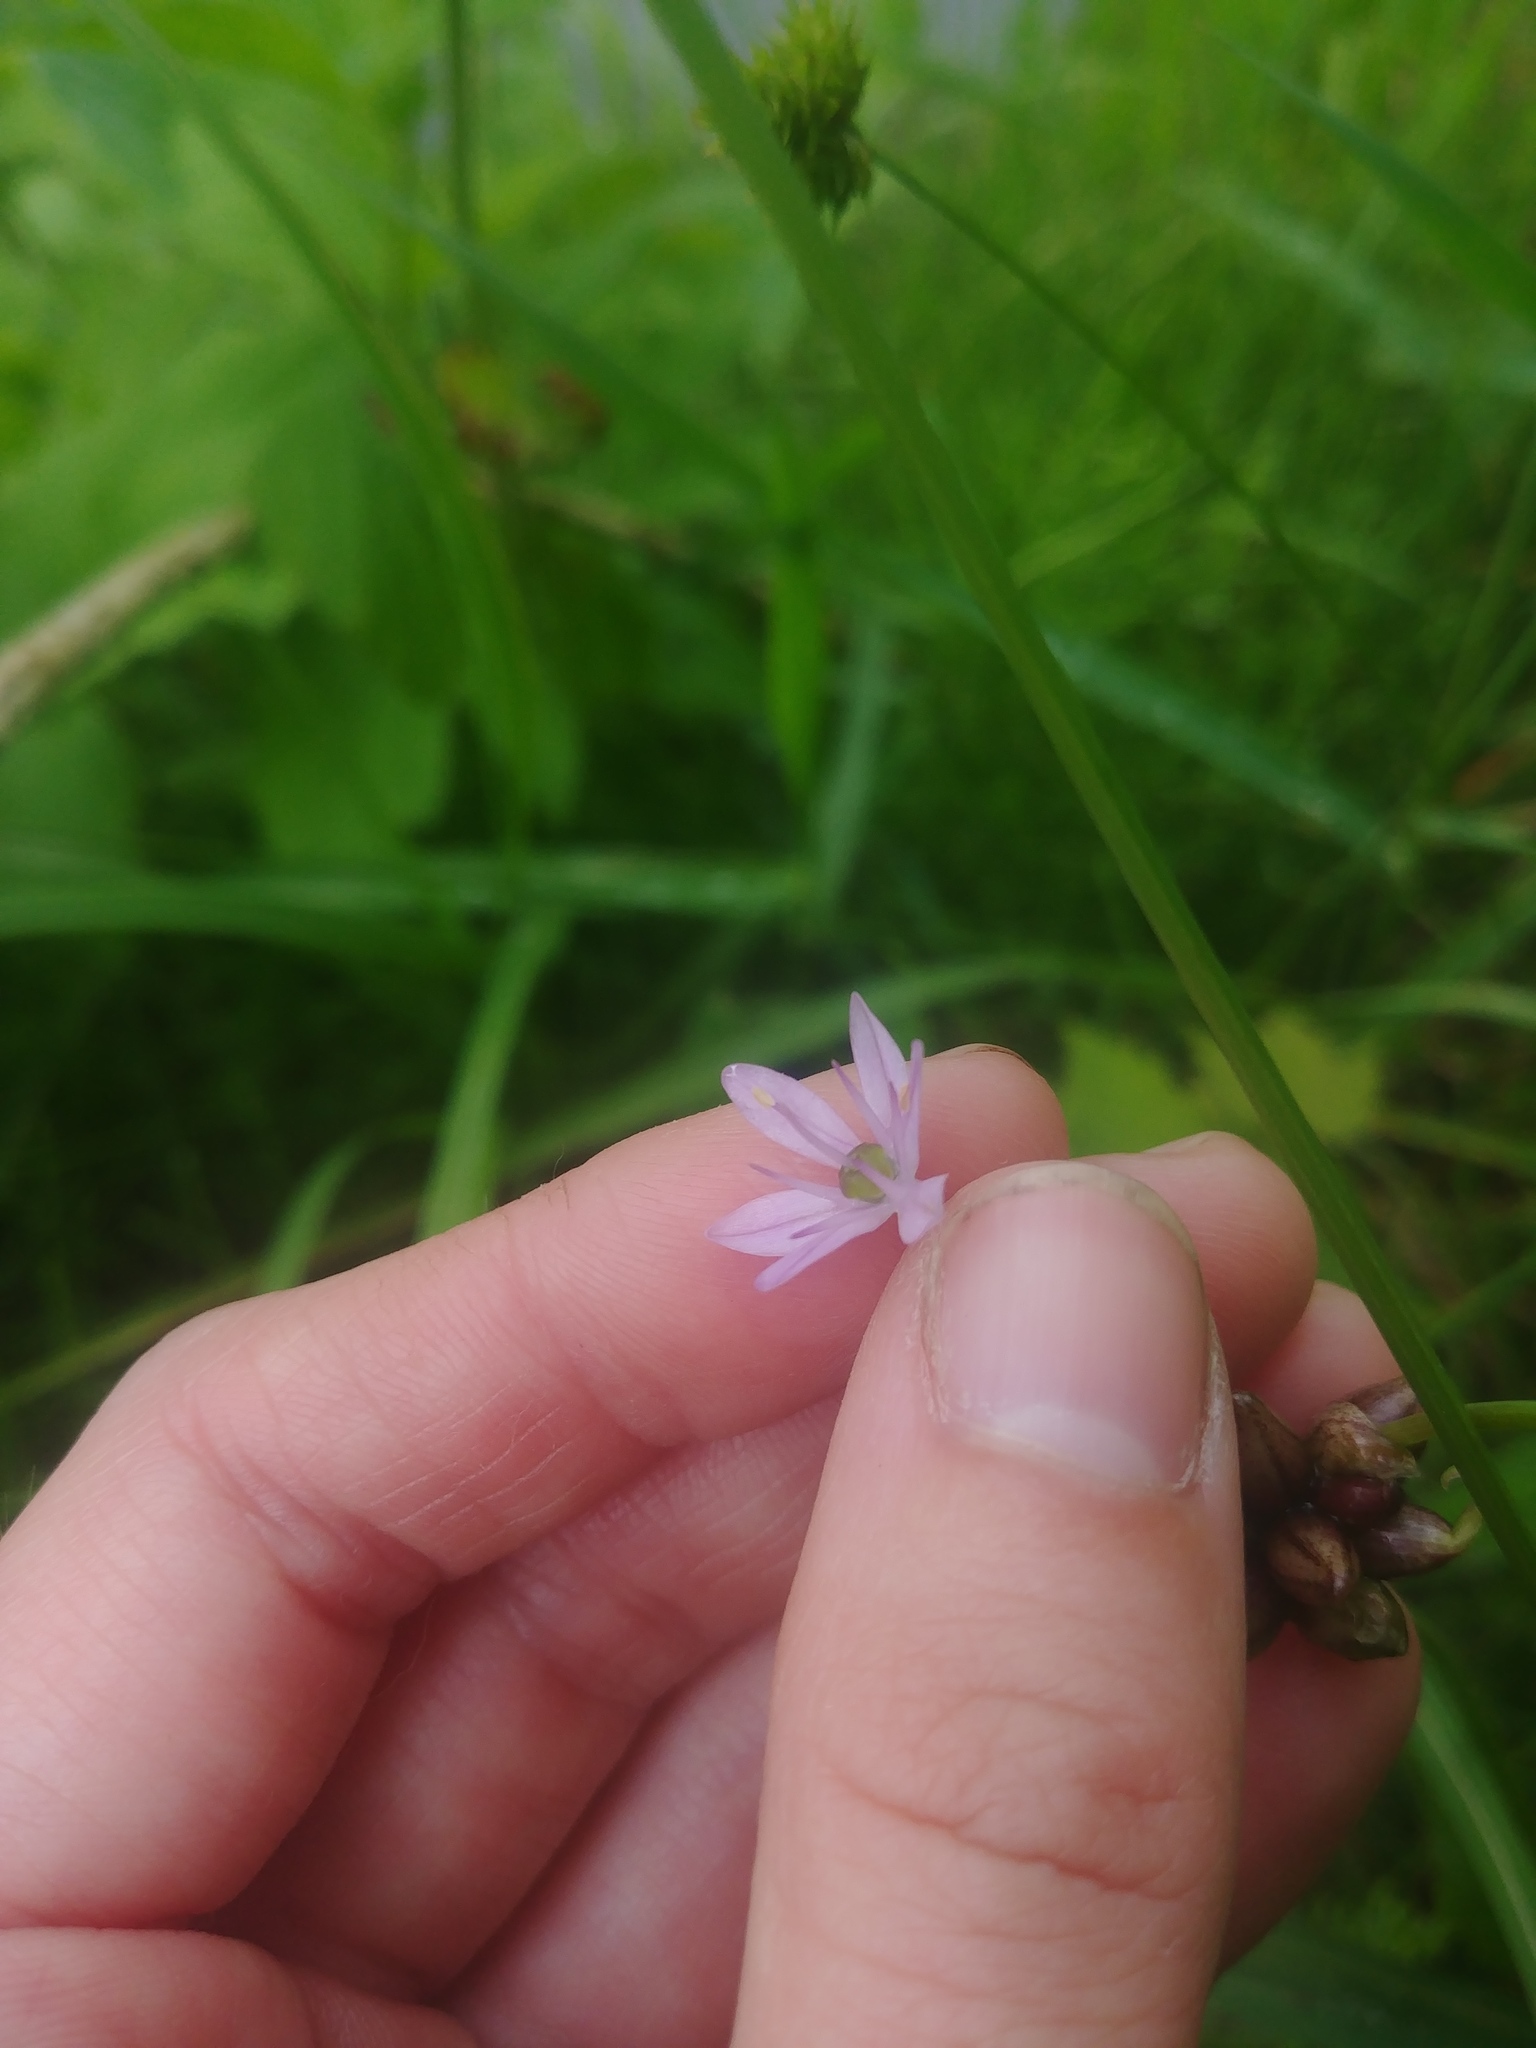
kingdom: Plantae
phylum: Tracheophyta
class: Liliopsida
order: Asparagales
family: Amaryllidaceae
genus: Allium
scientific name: Allium canadense
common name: Meadow garlic
